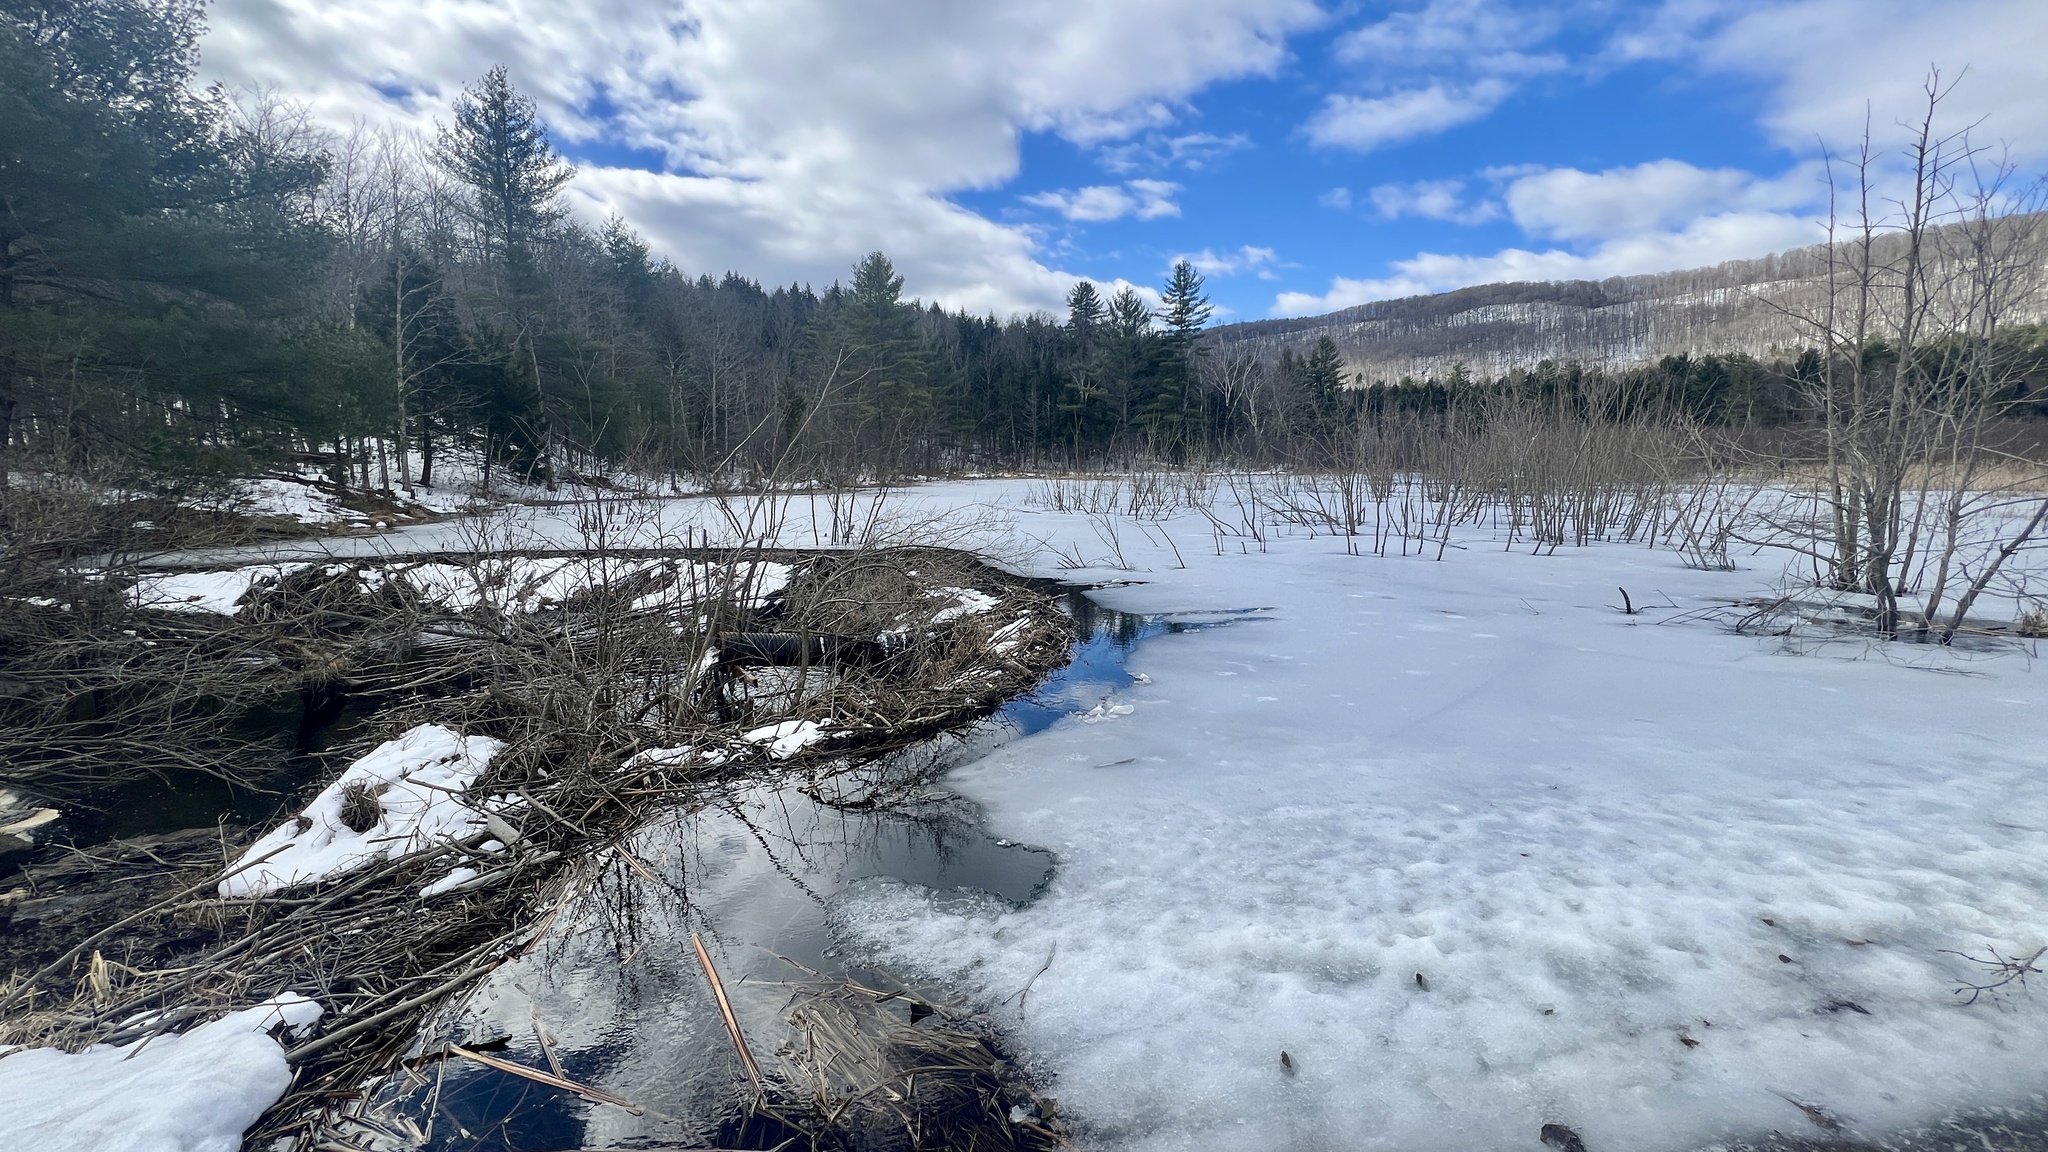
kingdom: Animalia
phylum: Chordata
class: Mammalia
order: Rodentia
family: Castoridae
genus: Castor
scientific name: Castor canadensis
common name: American beaver
